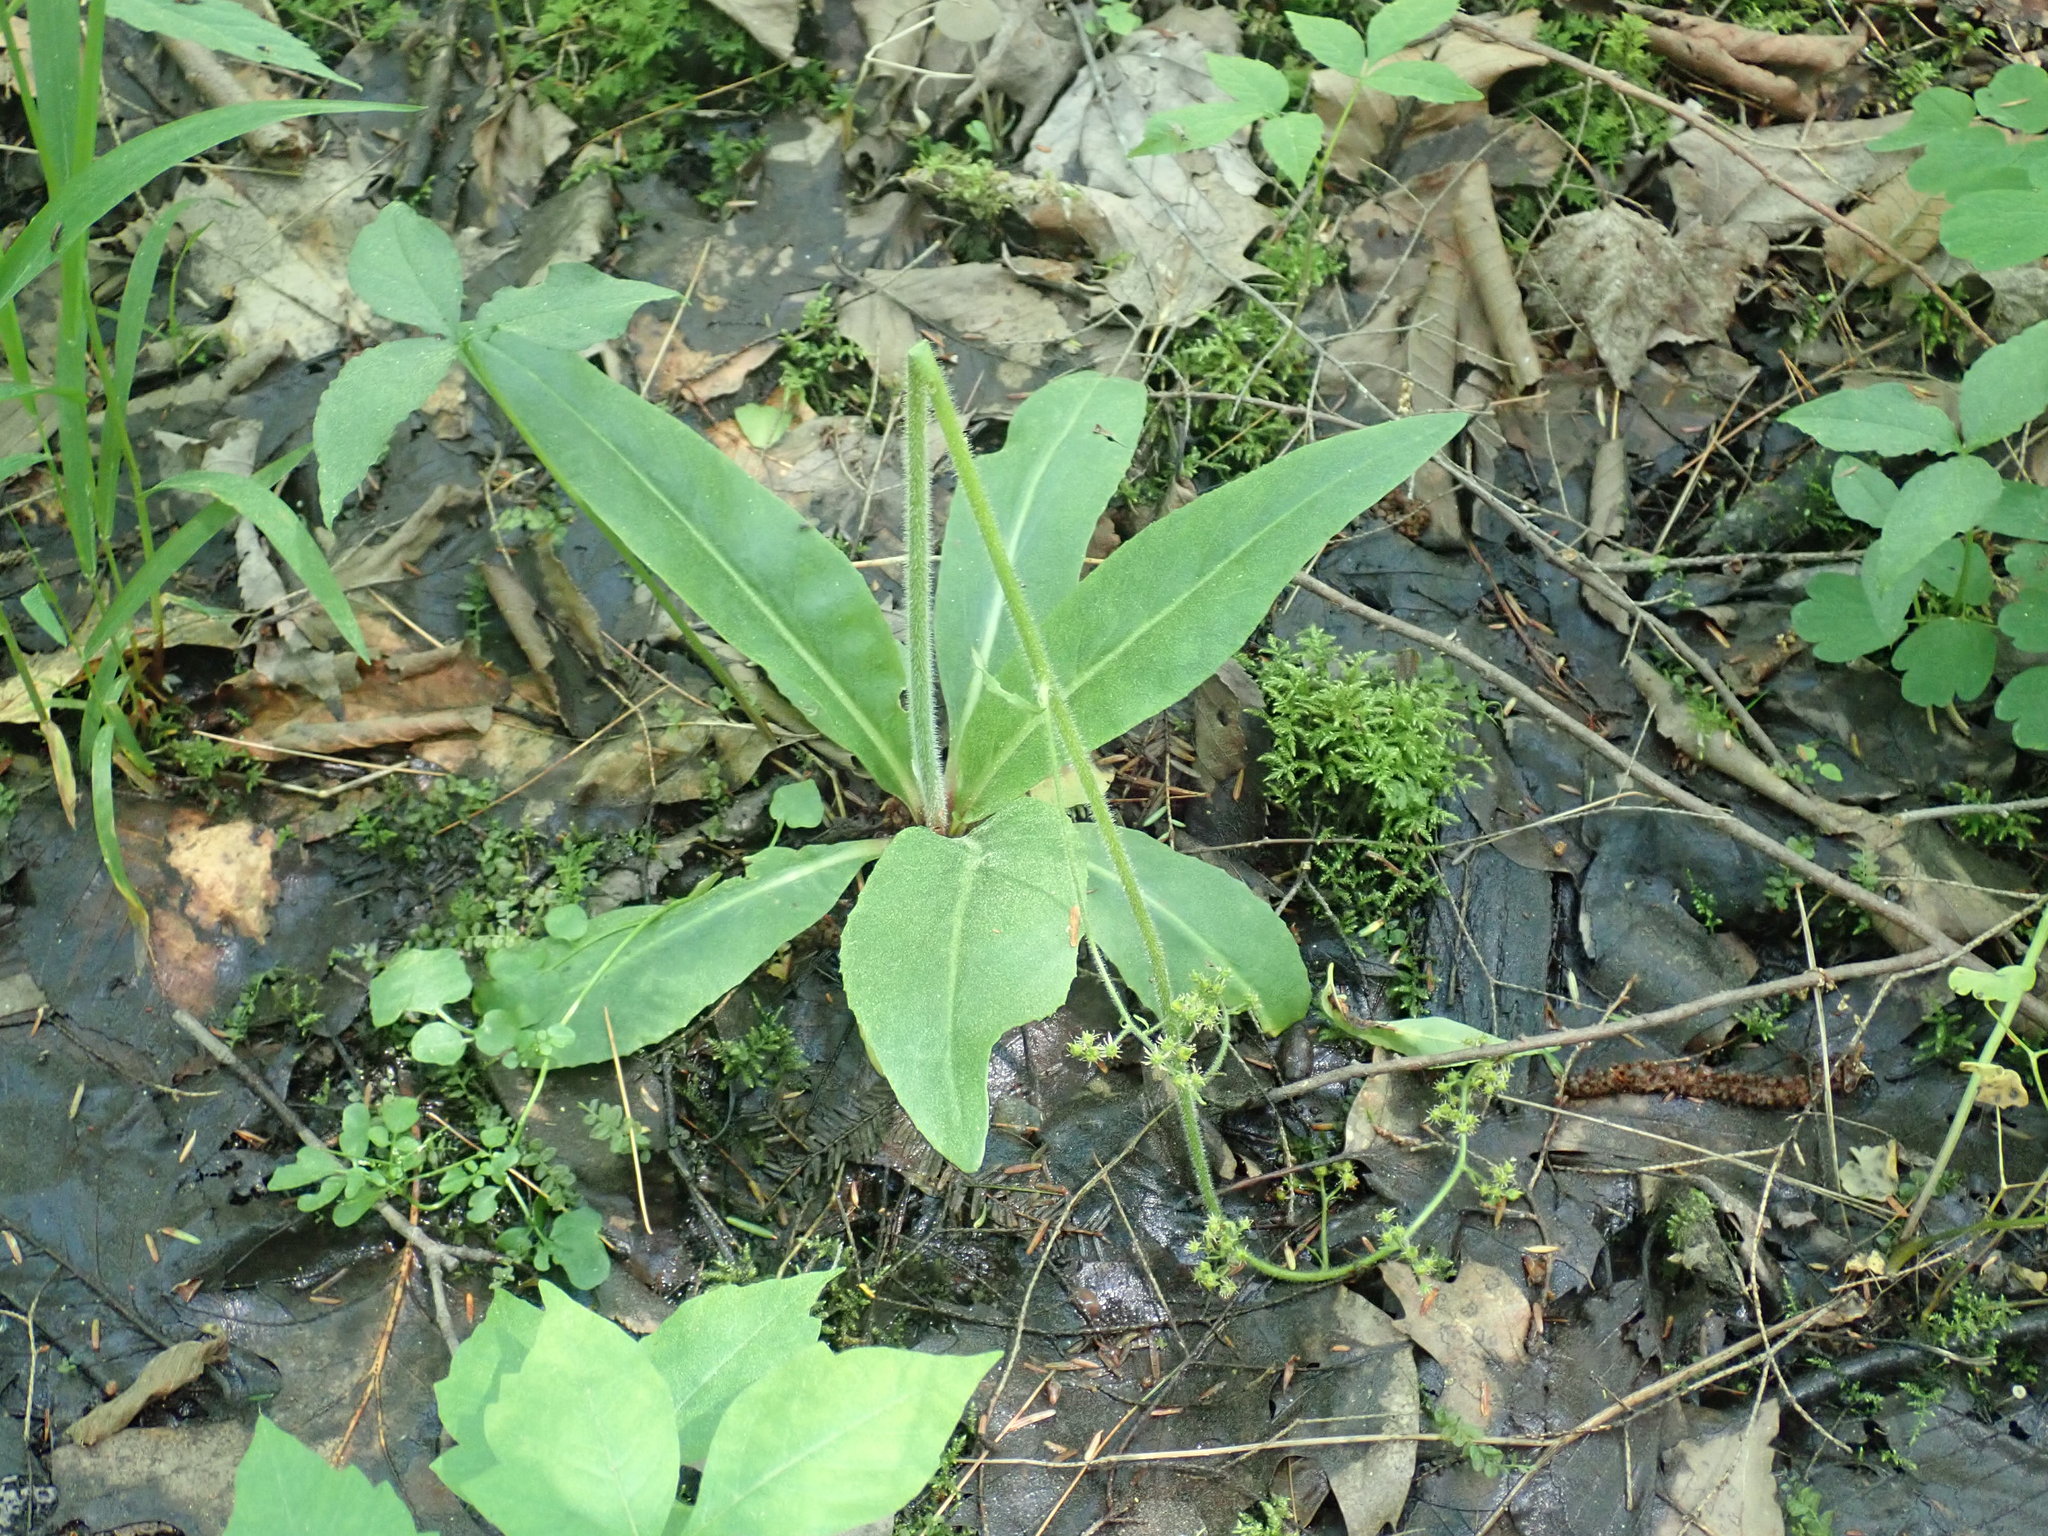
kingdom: Plantae
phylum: Tracheophyta
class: Magnoliopsida
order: Saxifragales
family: Saxifragaceae
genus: Micranthes
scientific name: Micranthes pensylvanica
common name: Marsh saxifrage
